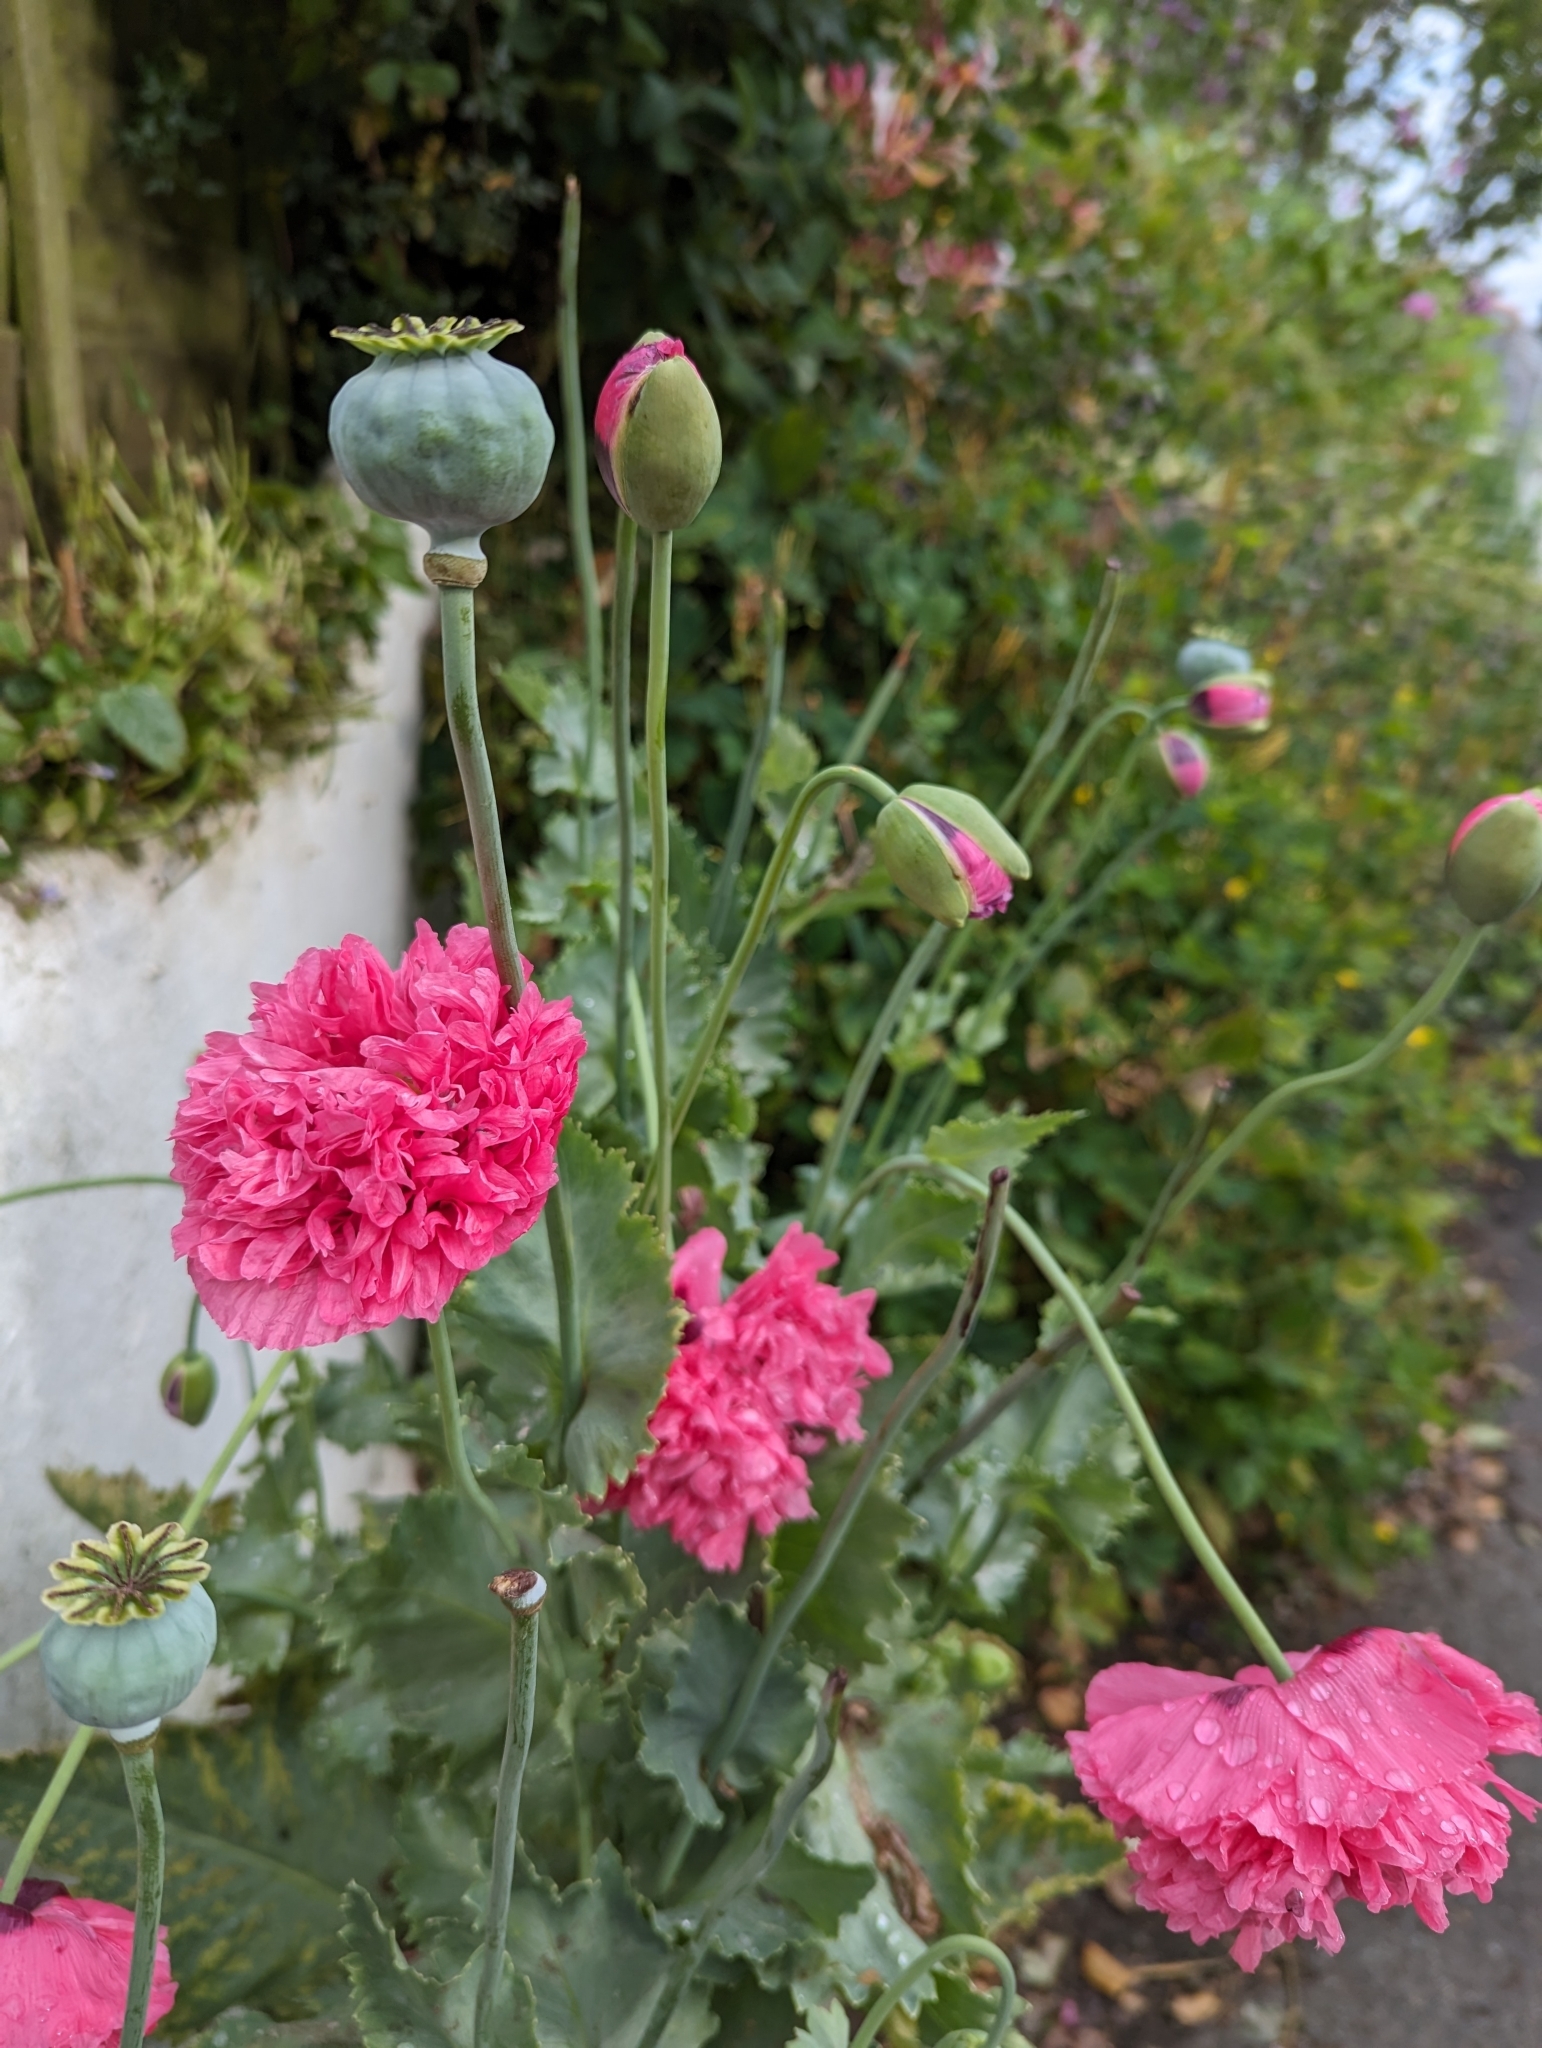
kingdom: Plantae
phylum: Tracheophyta
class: Magnoliopsida
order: Ranunculales
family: Papaveraceae
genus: Papaver
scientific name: Papaver somniferum
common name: Opium poppy
